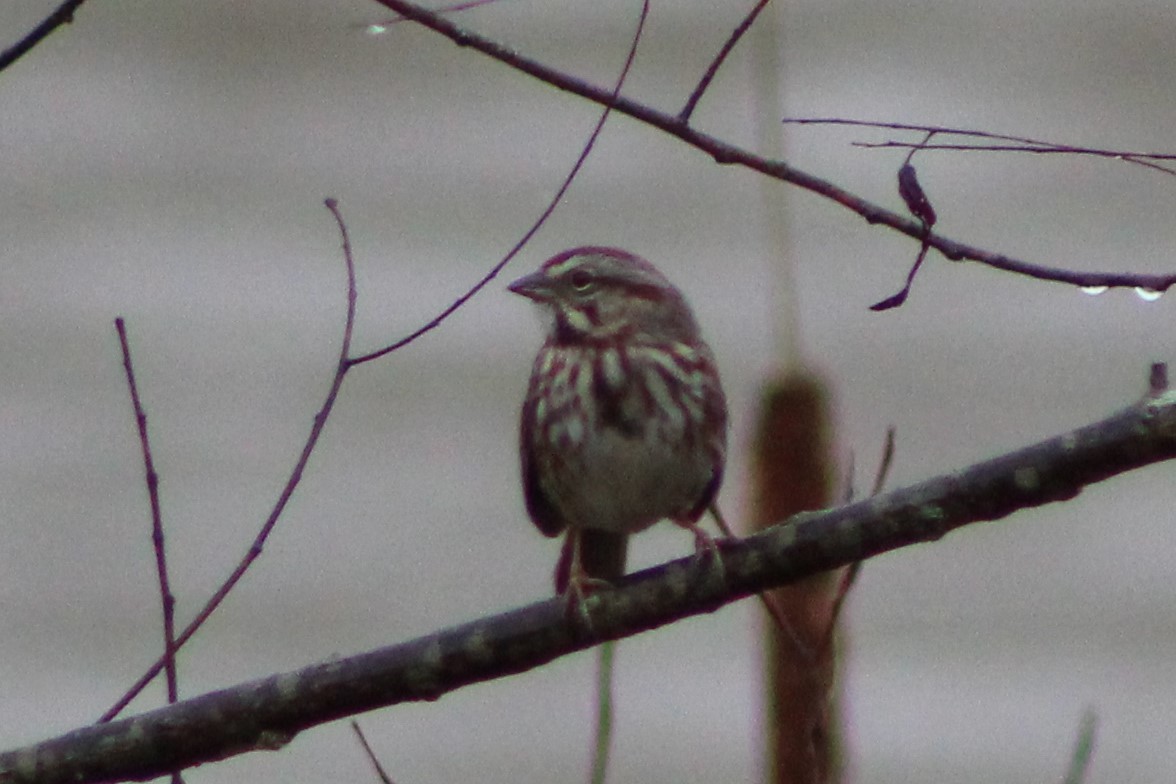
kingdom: Animalia
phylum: Chordata
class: Aves
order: Passeriformes
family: Passerellidae
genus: Melospiza
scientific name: Melospiza melodia
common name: Song sparrow
